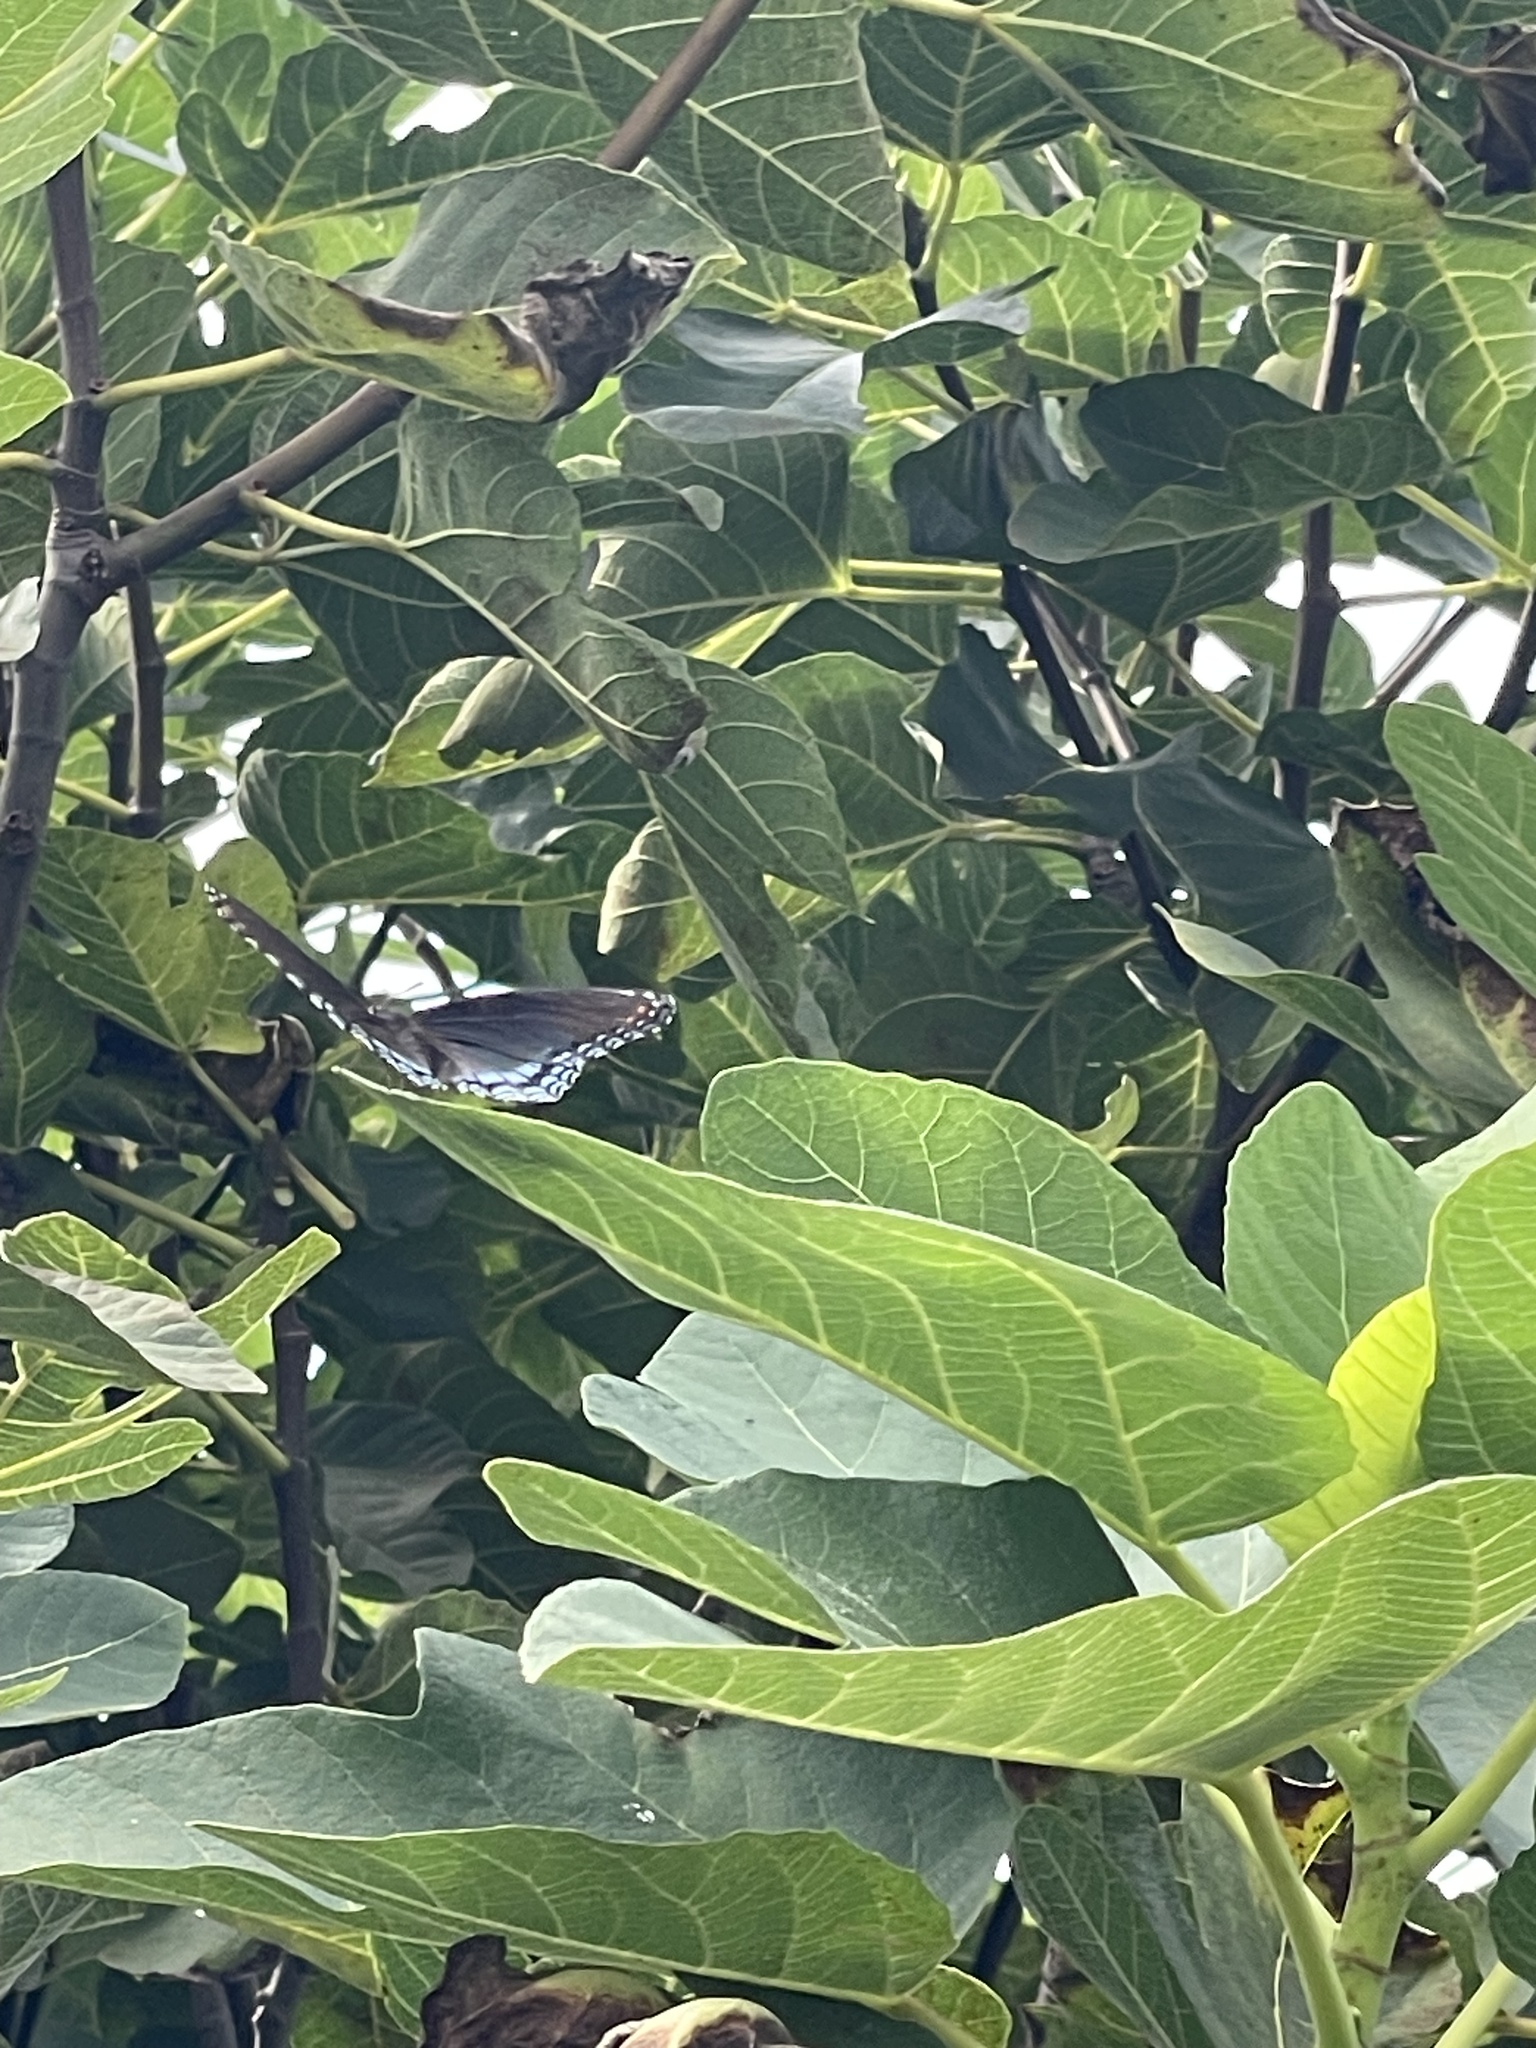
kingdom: Animalia
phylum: Arthropoda
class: Insecta
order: Lepidoptera
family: Nymphalidae
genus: Limenitis
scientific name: Limenitis astyanax
